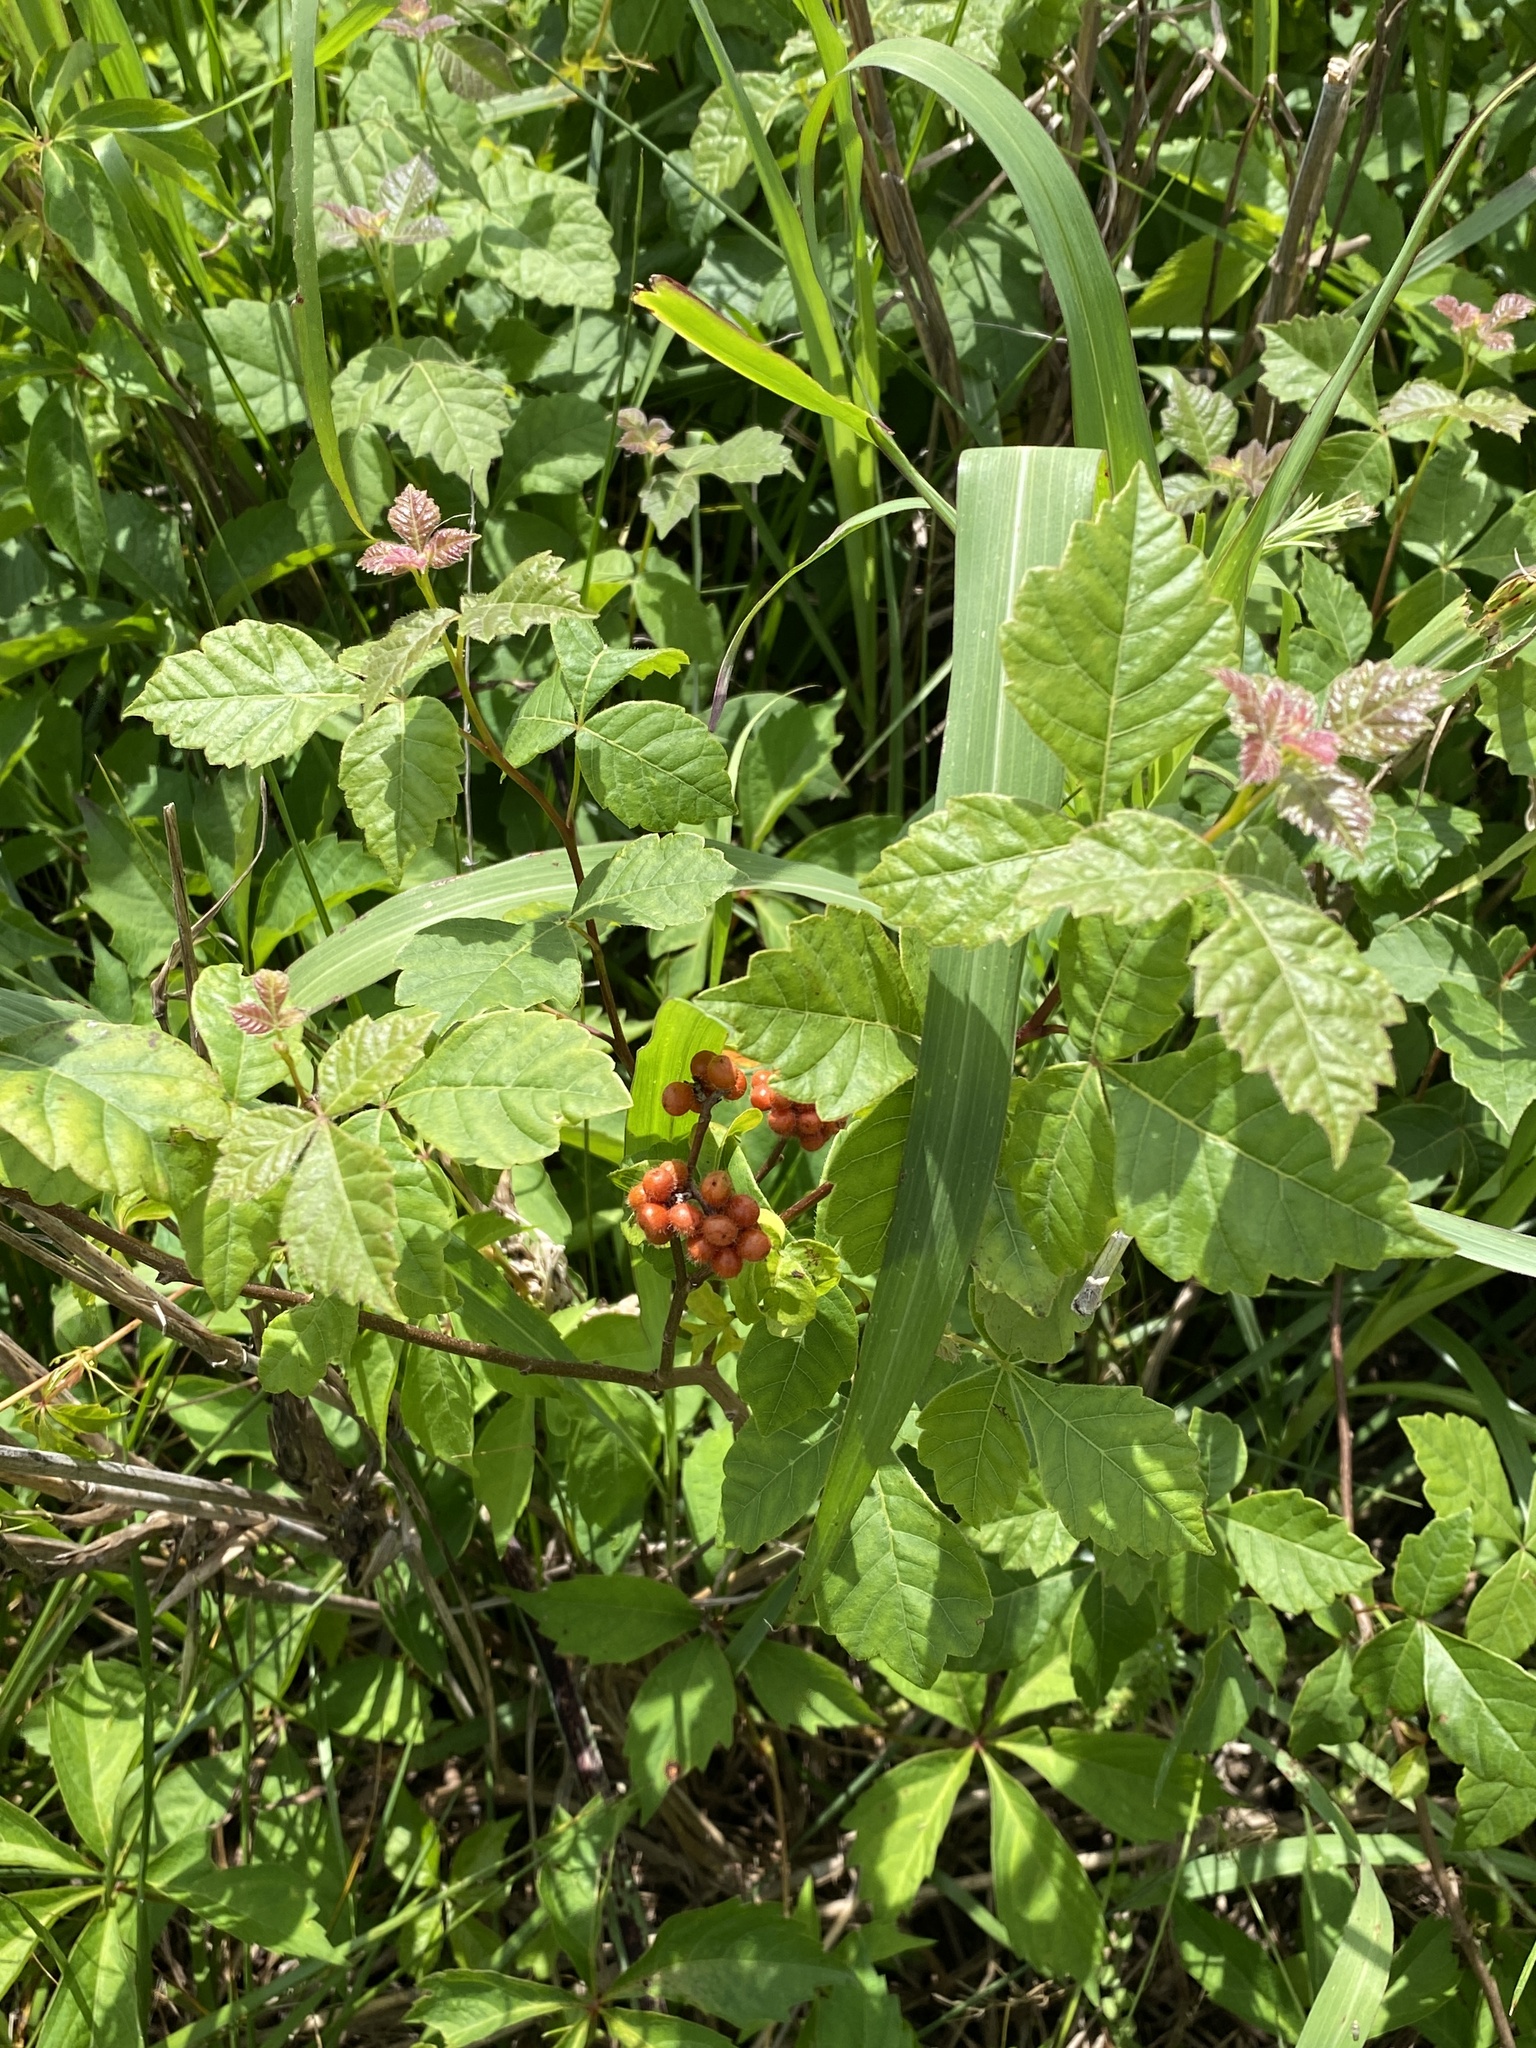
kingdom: Plantae
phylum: Tracheophyta
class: Magnoliopsida
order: Sapindales
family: Anacardiaceae
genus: Rhus
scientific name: Rhus aromatica
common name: Aromatic sumac
